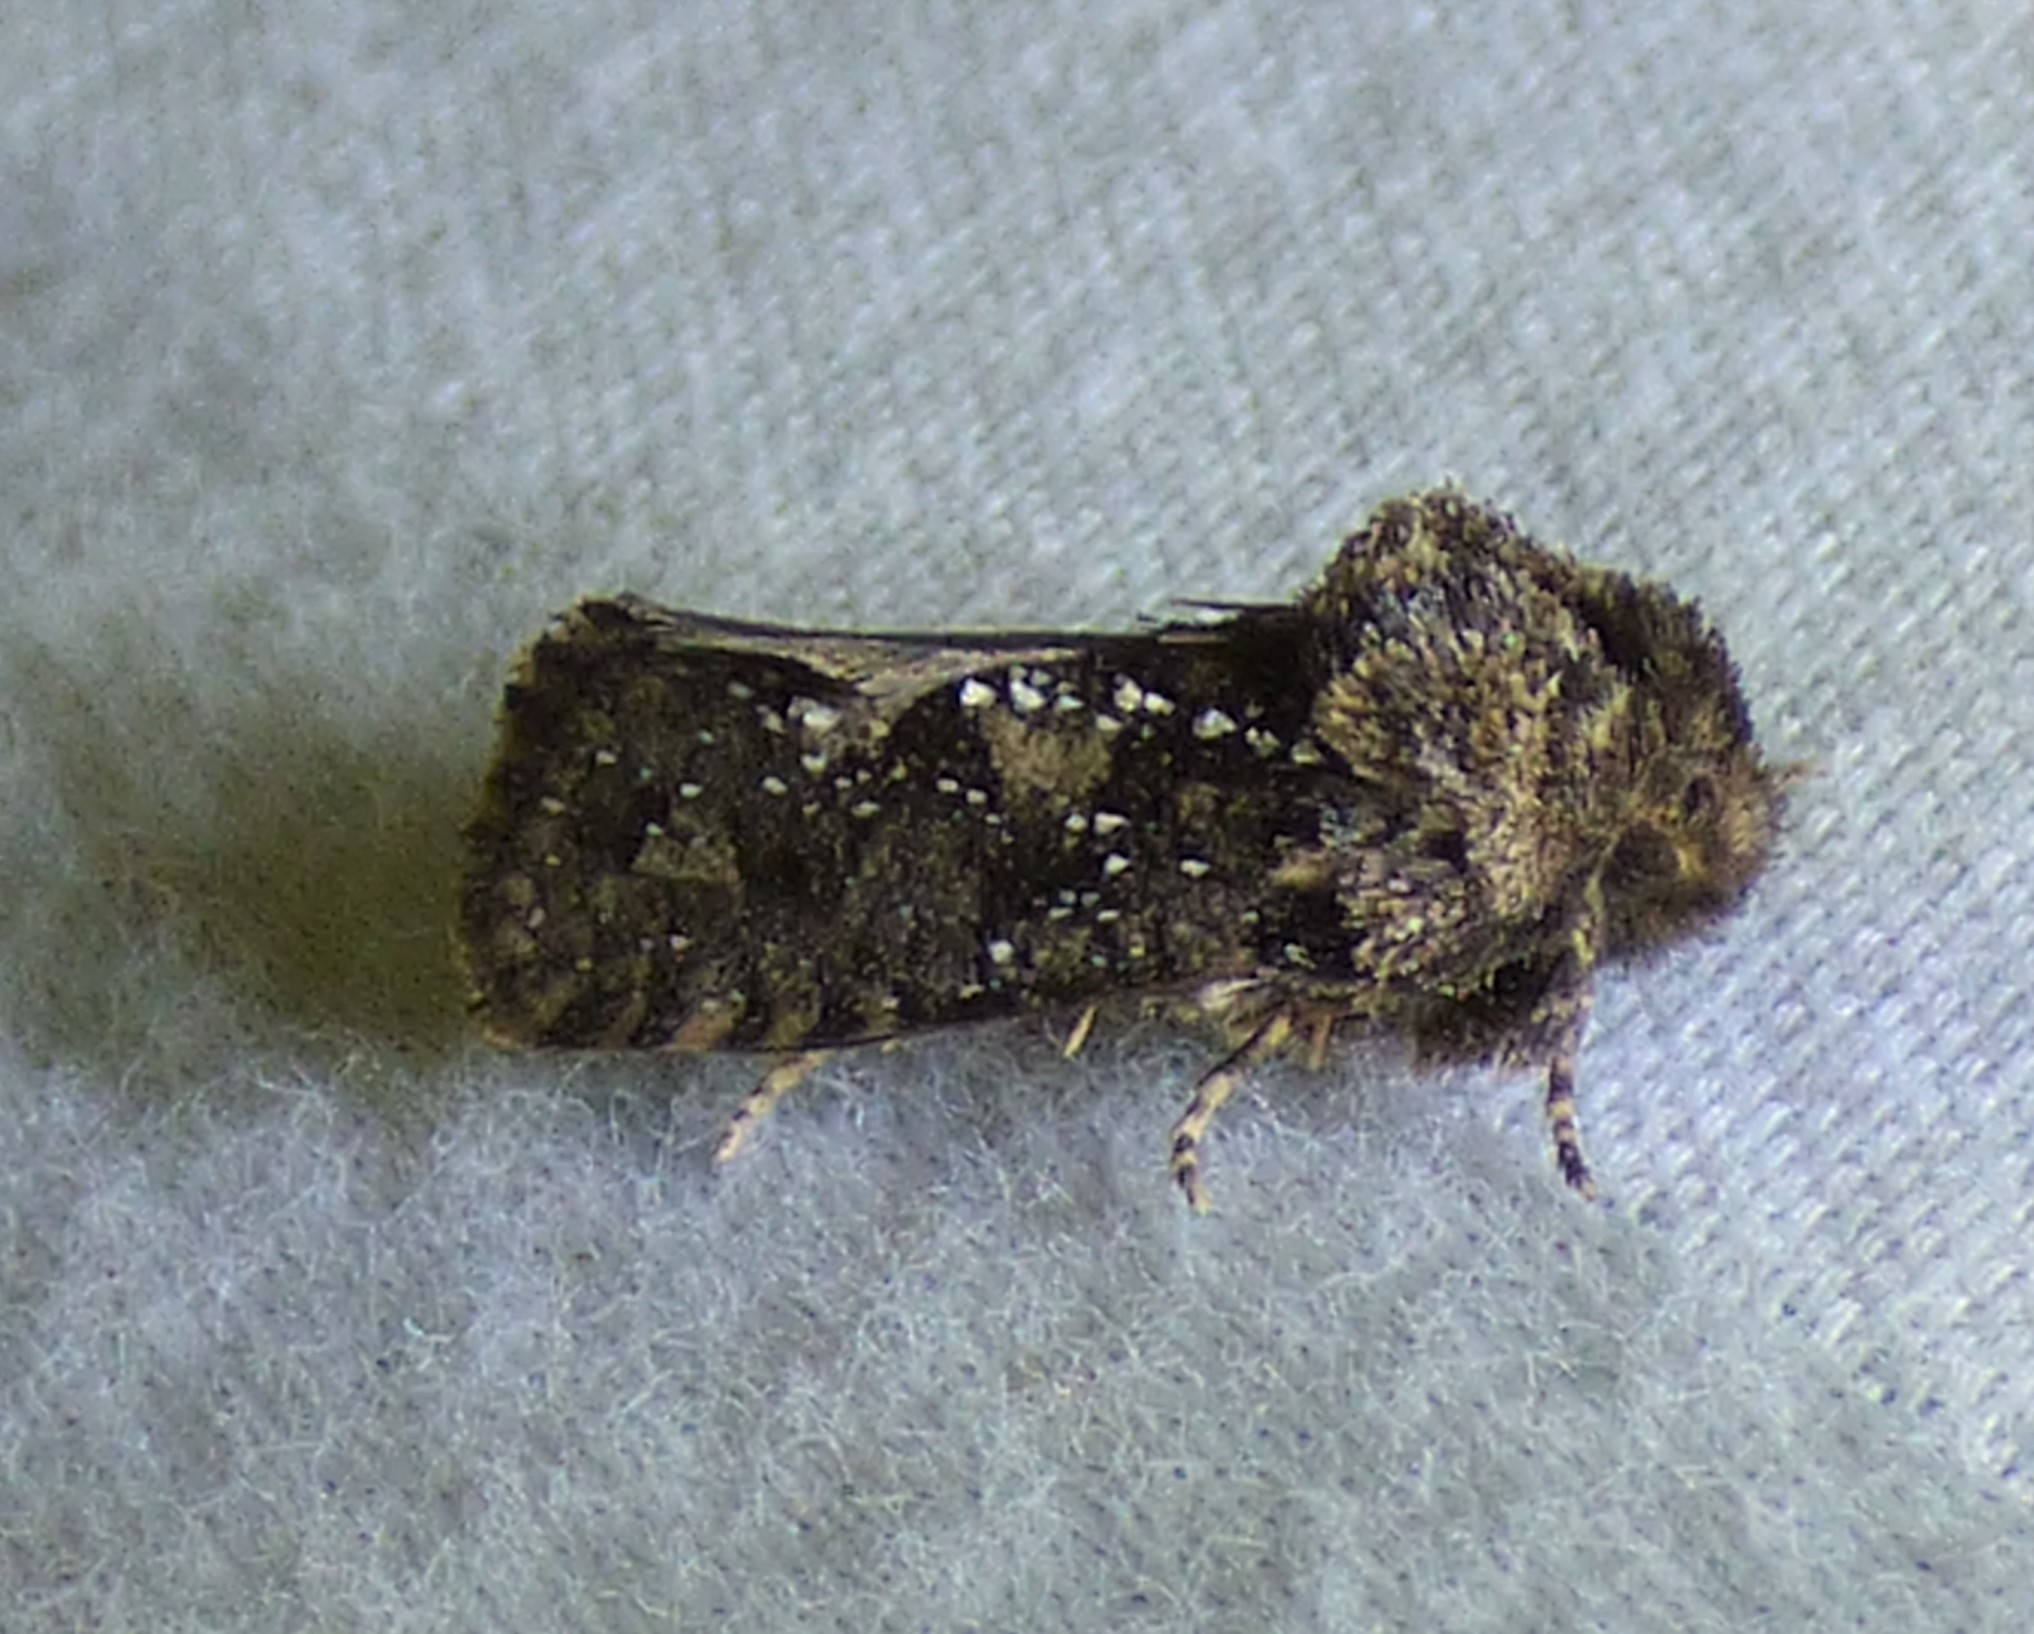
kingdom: Animalia
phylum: Arthropoda
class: Insecta
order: Lepidoptera
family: Tineidae
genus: Acrolophus
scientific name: Acrolophus arcanella
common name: Arcane grass tubeworm moth
